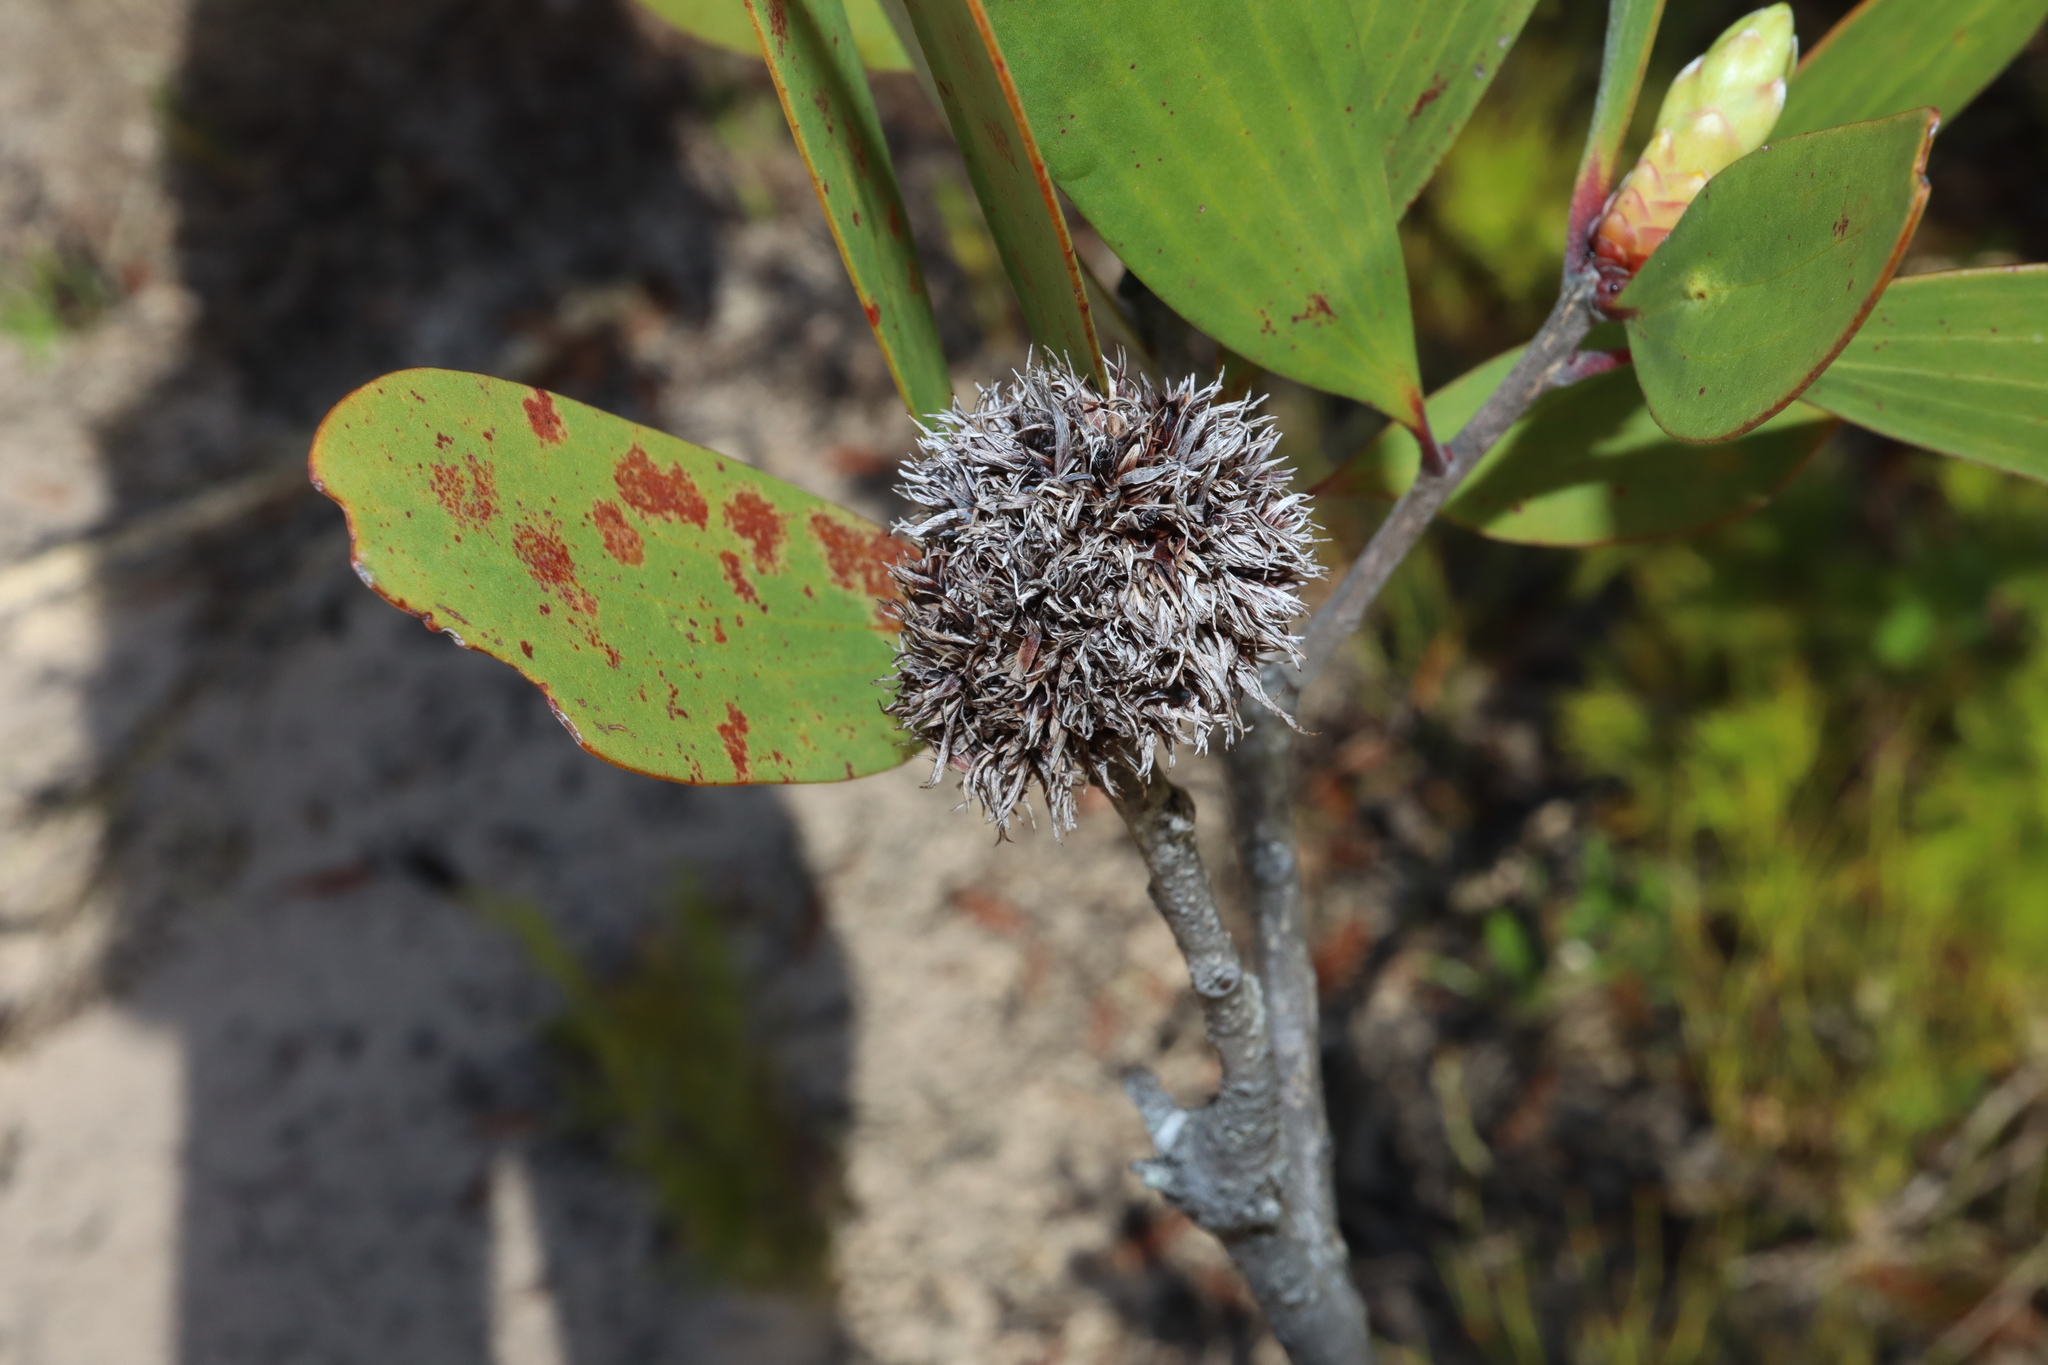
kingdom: Animalia
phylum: Arthropoda
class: Insecta
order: Hemiptera
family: Beesoniidae
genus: Beesonia
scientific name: Beesonia ferrugineus
